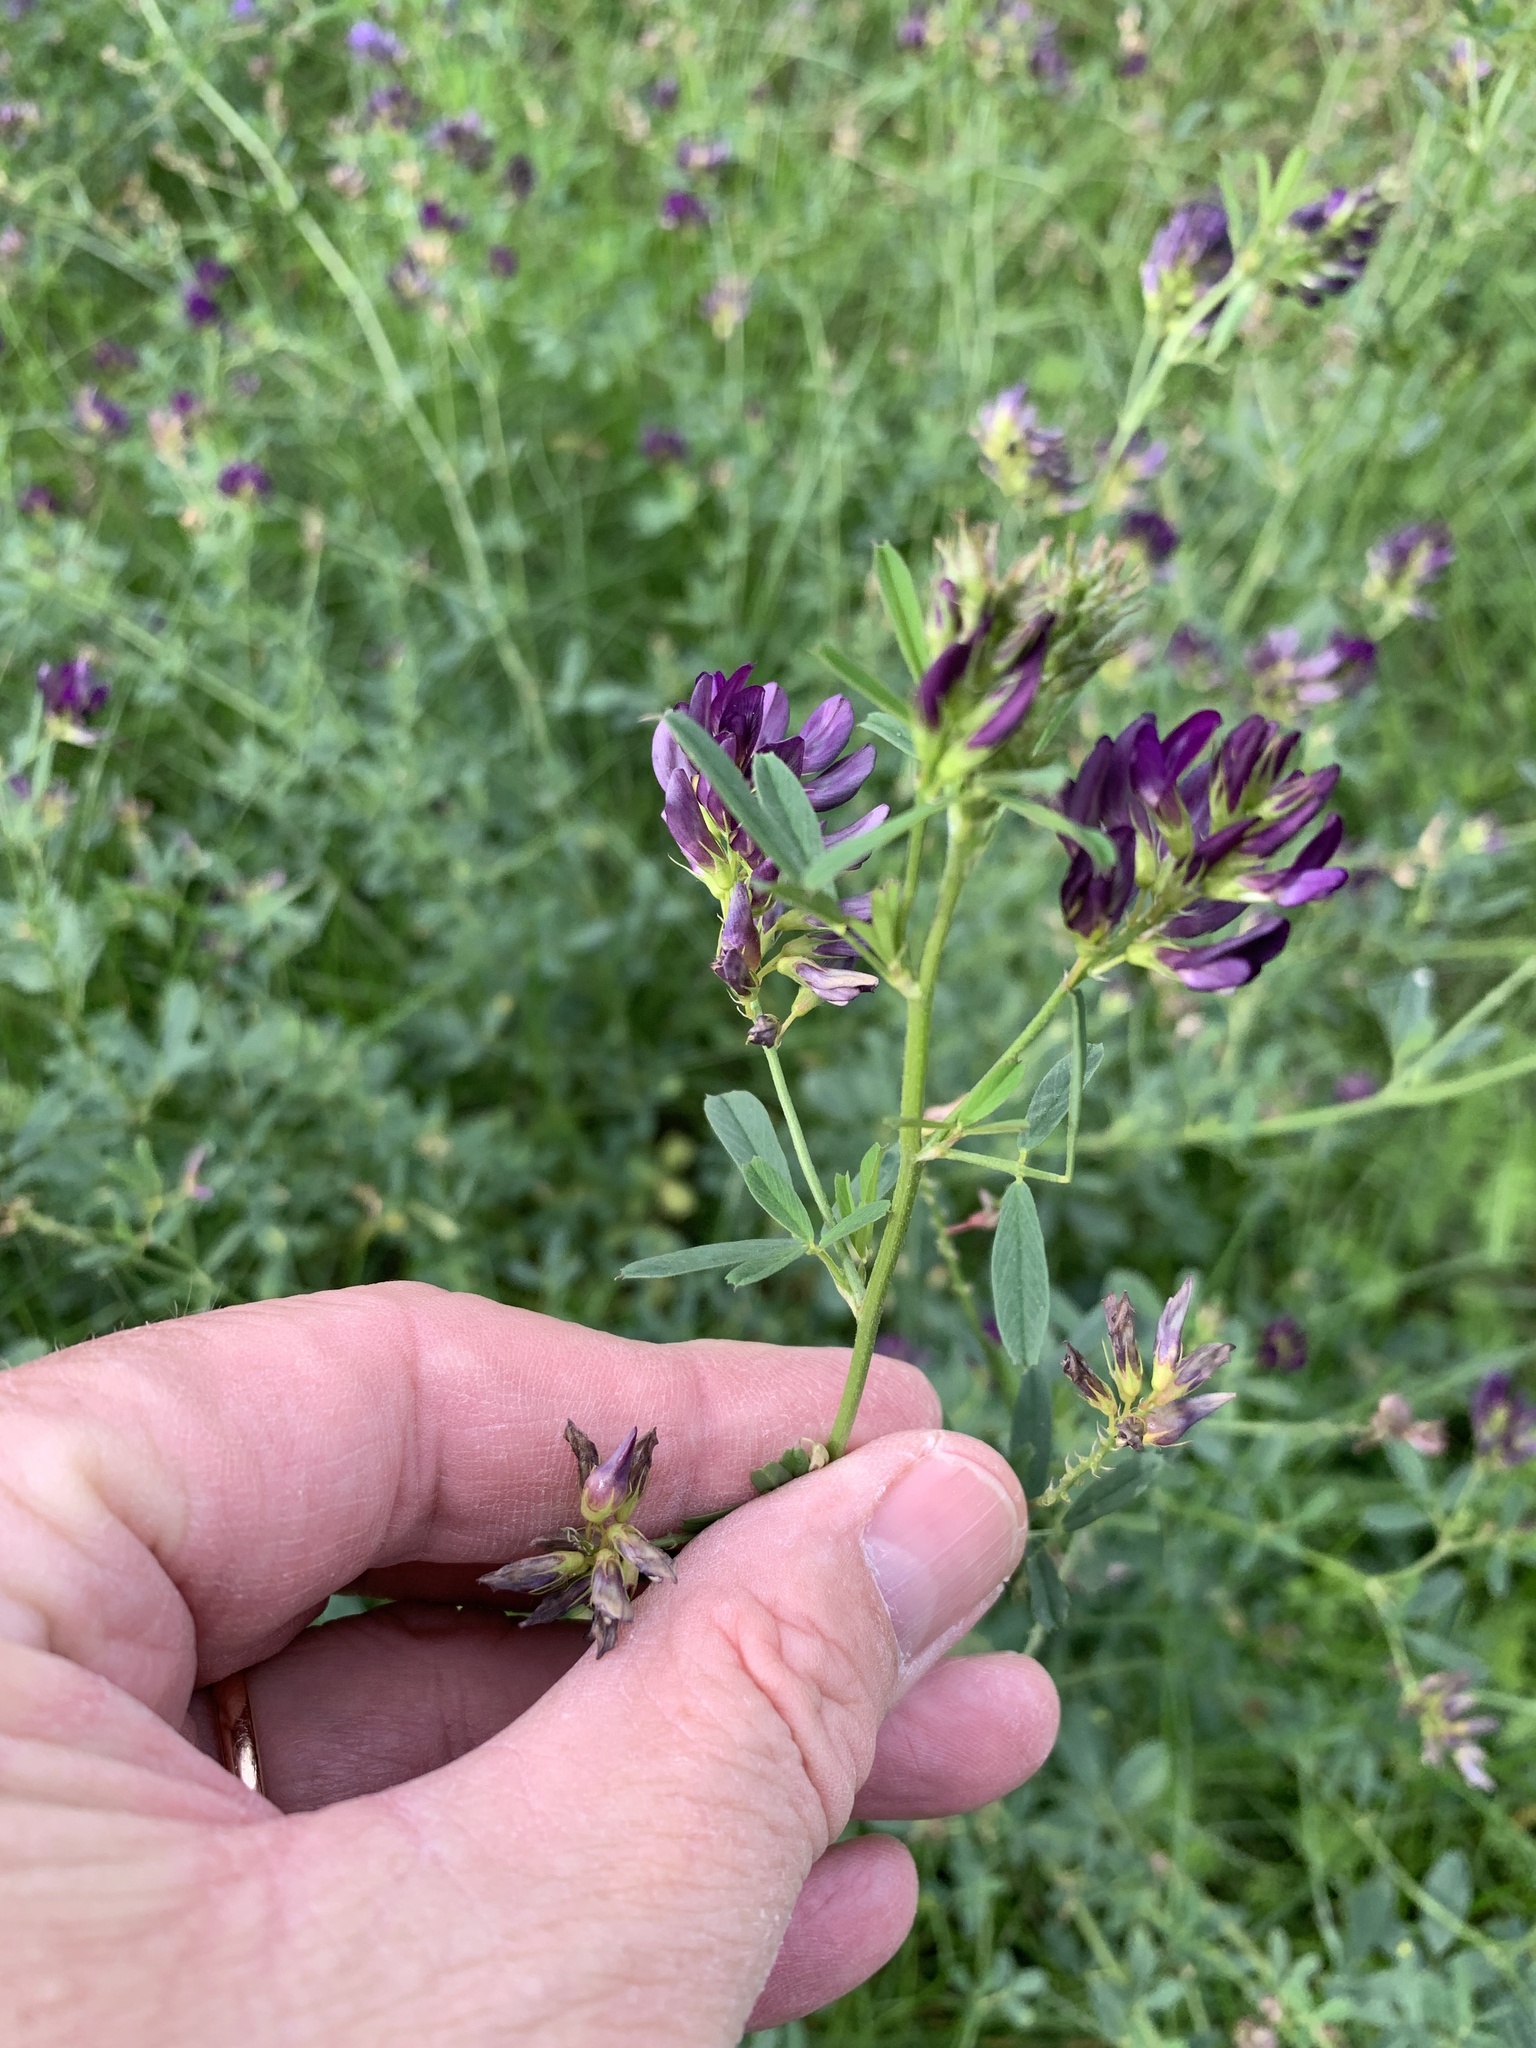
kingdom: Plantae
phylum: Tracheophyta
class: Magnoliopsida
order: Fabales
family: Fabaceae
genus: Medicago
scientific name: Medicago sativa
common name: Alfalfa
